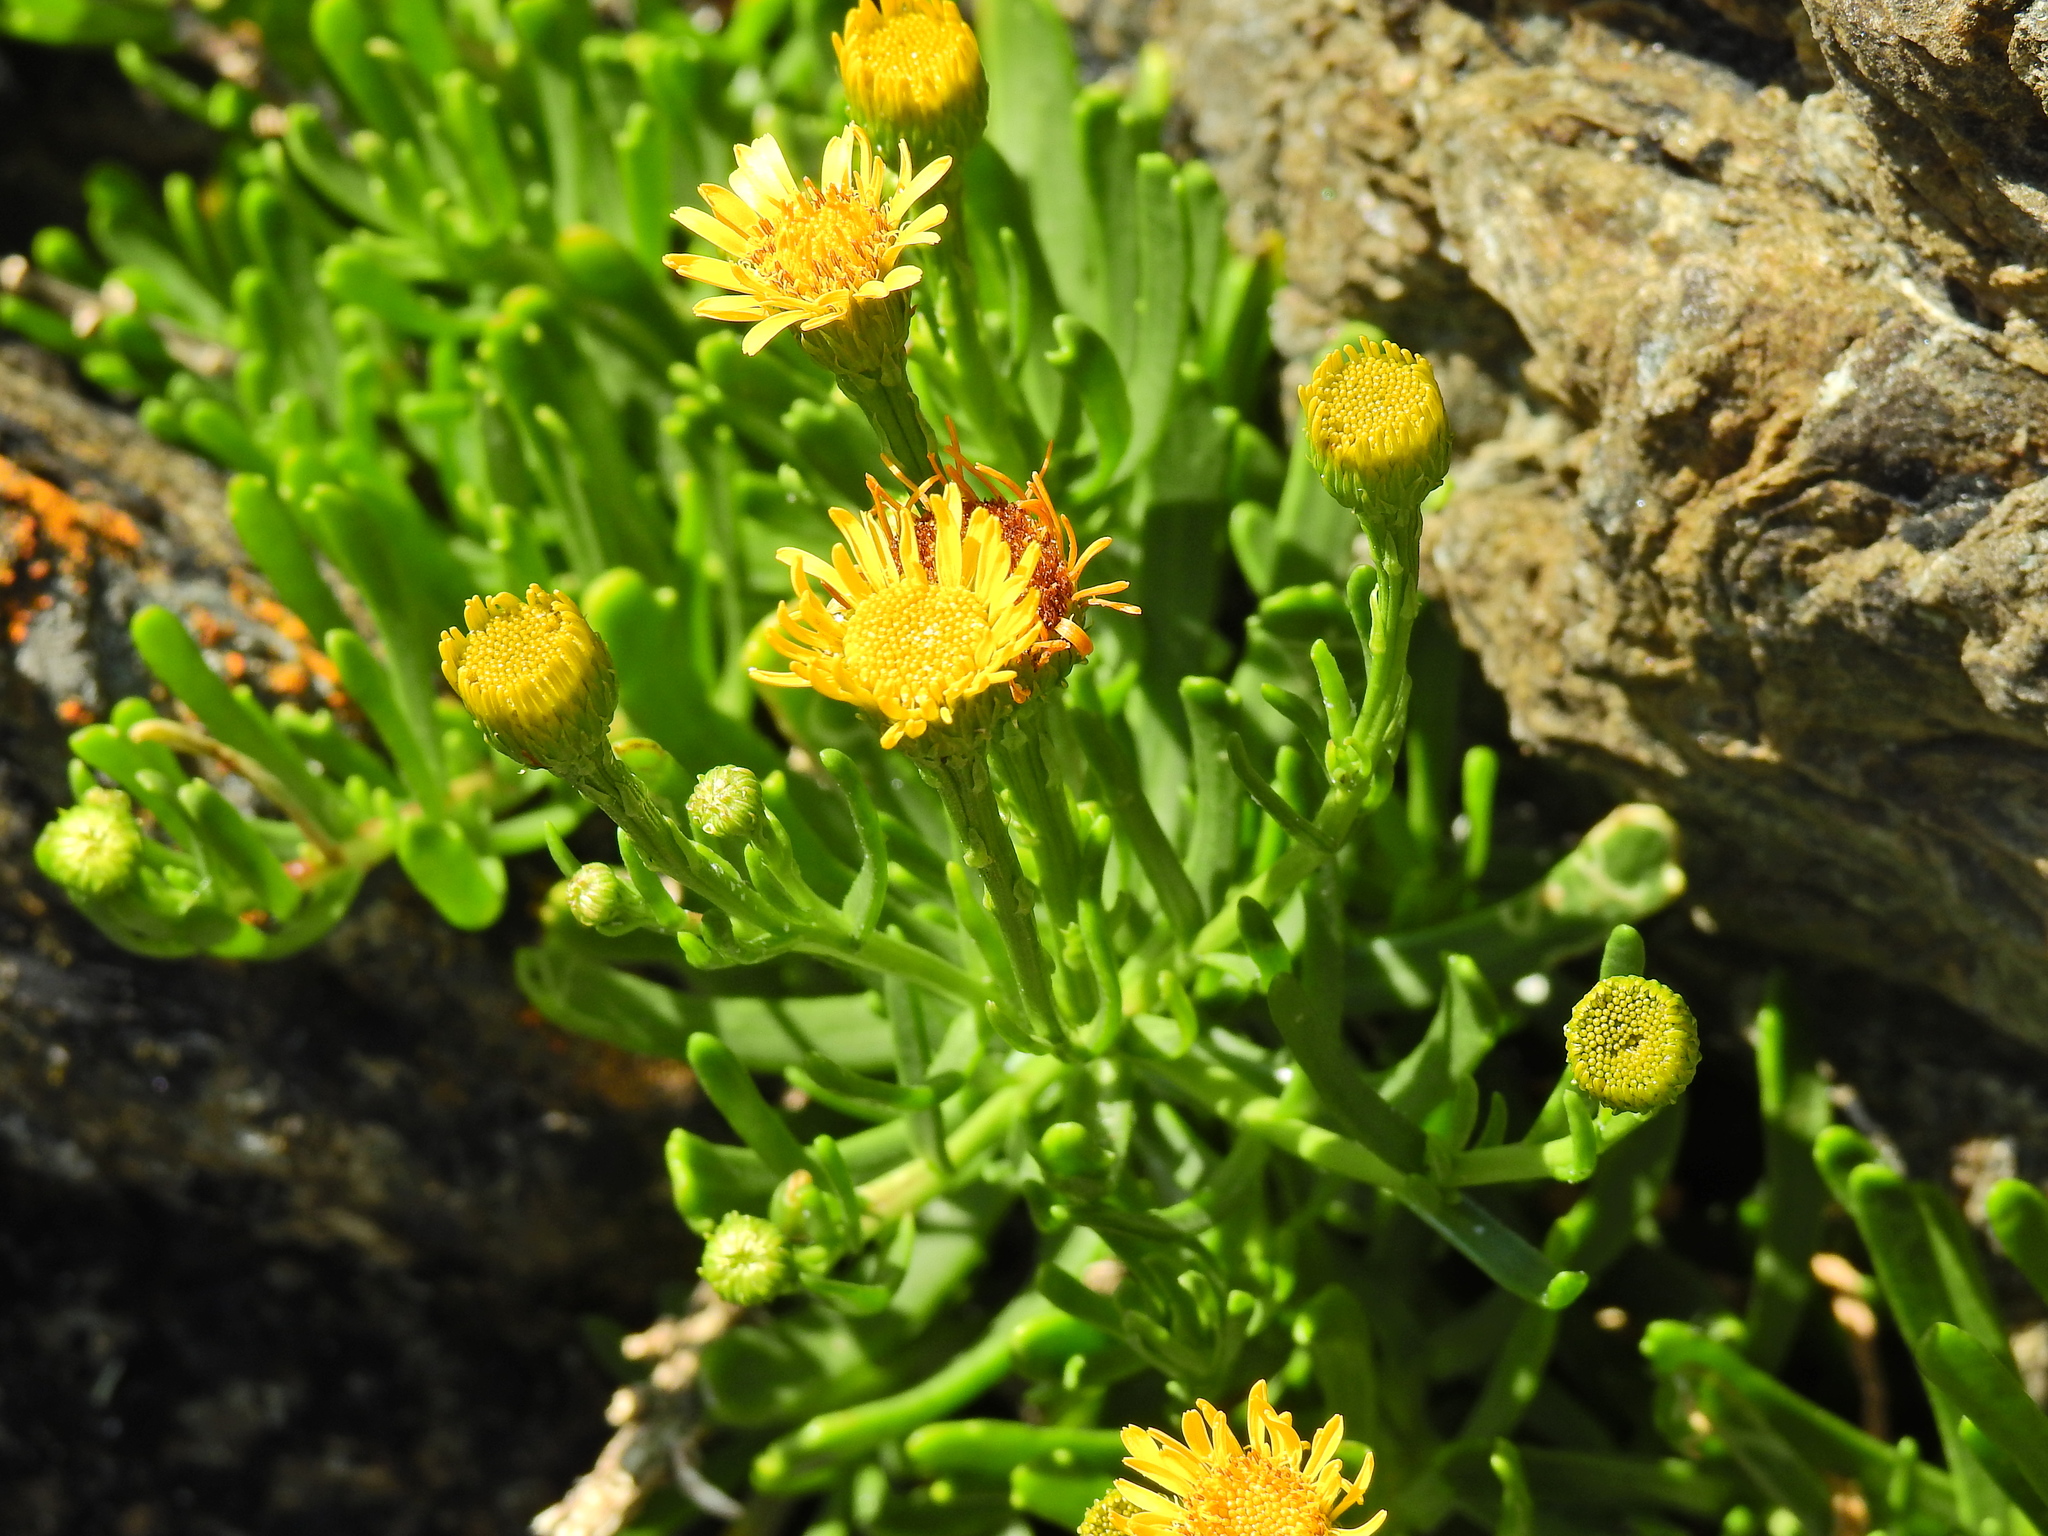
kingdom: Plantae
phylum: Tracheophyta
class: Magnoliopsida
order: Asterales
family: Asteraceae
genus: Limbarda
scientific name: Limbarda crithmoides
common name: Golden samphire
